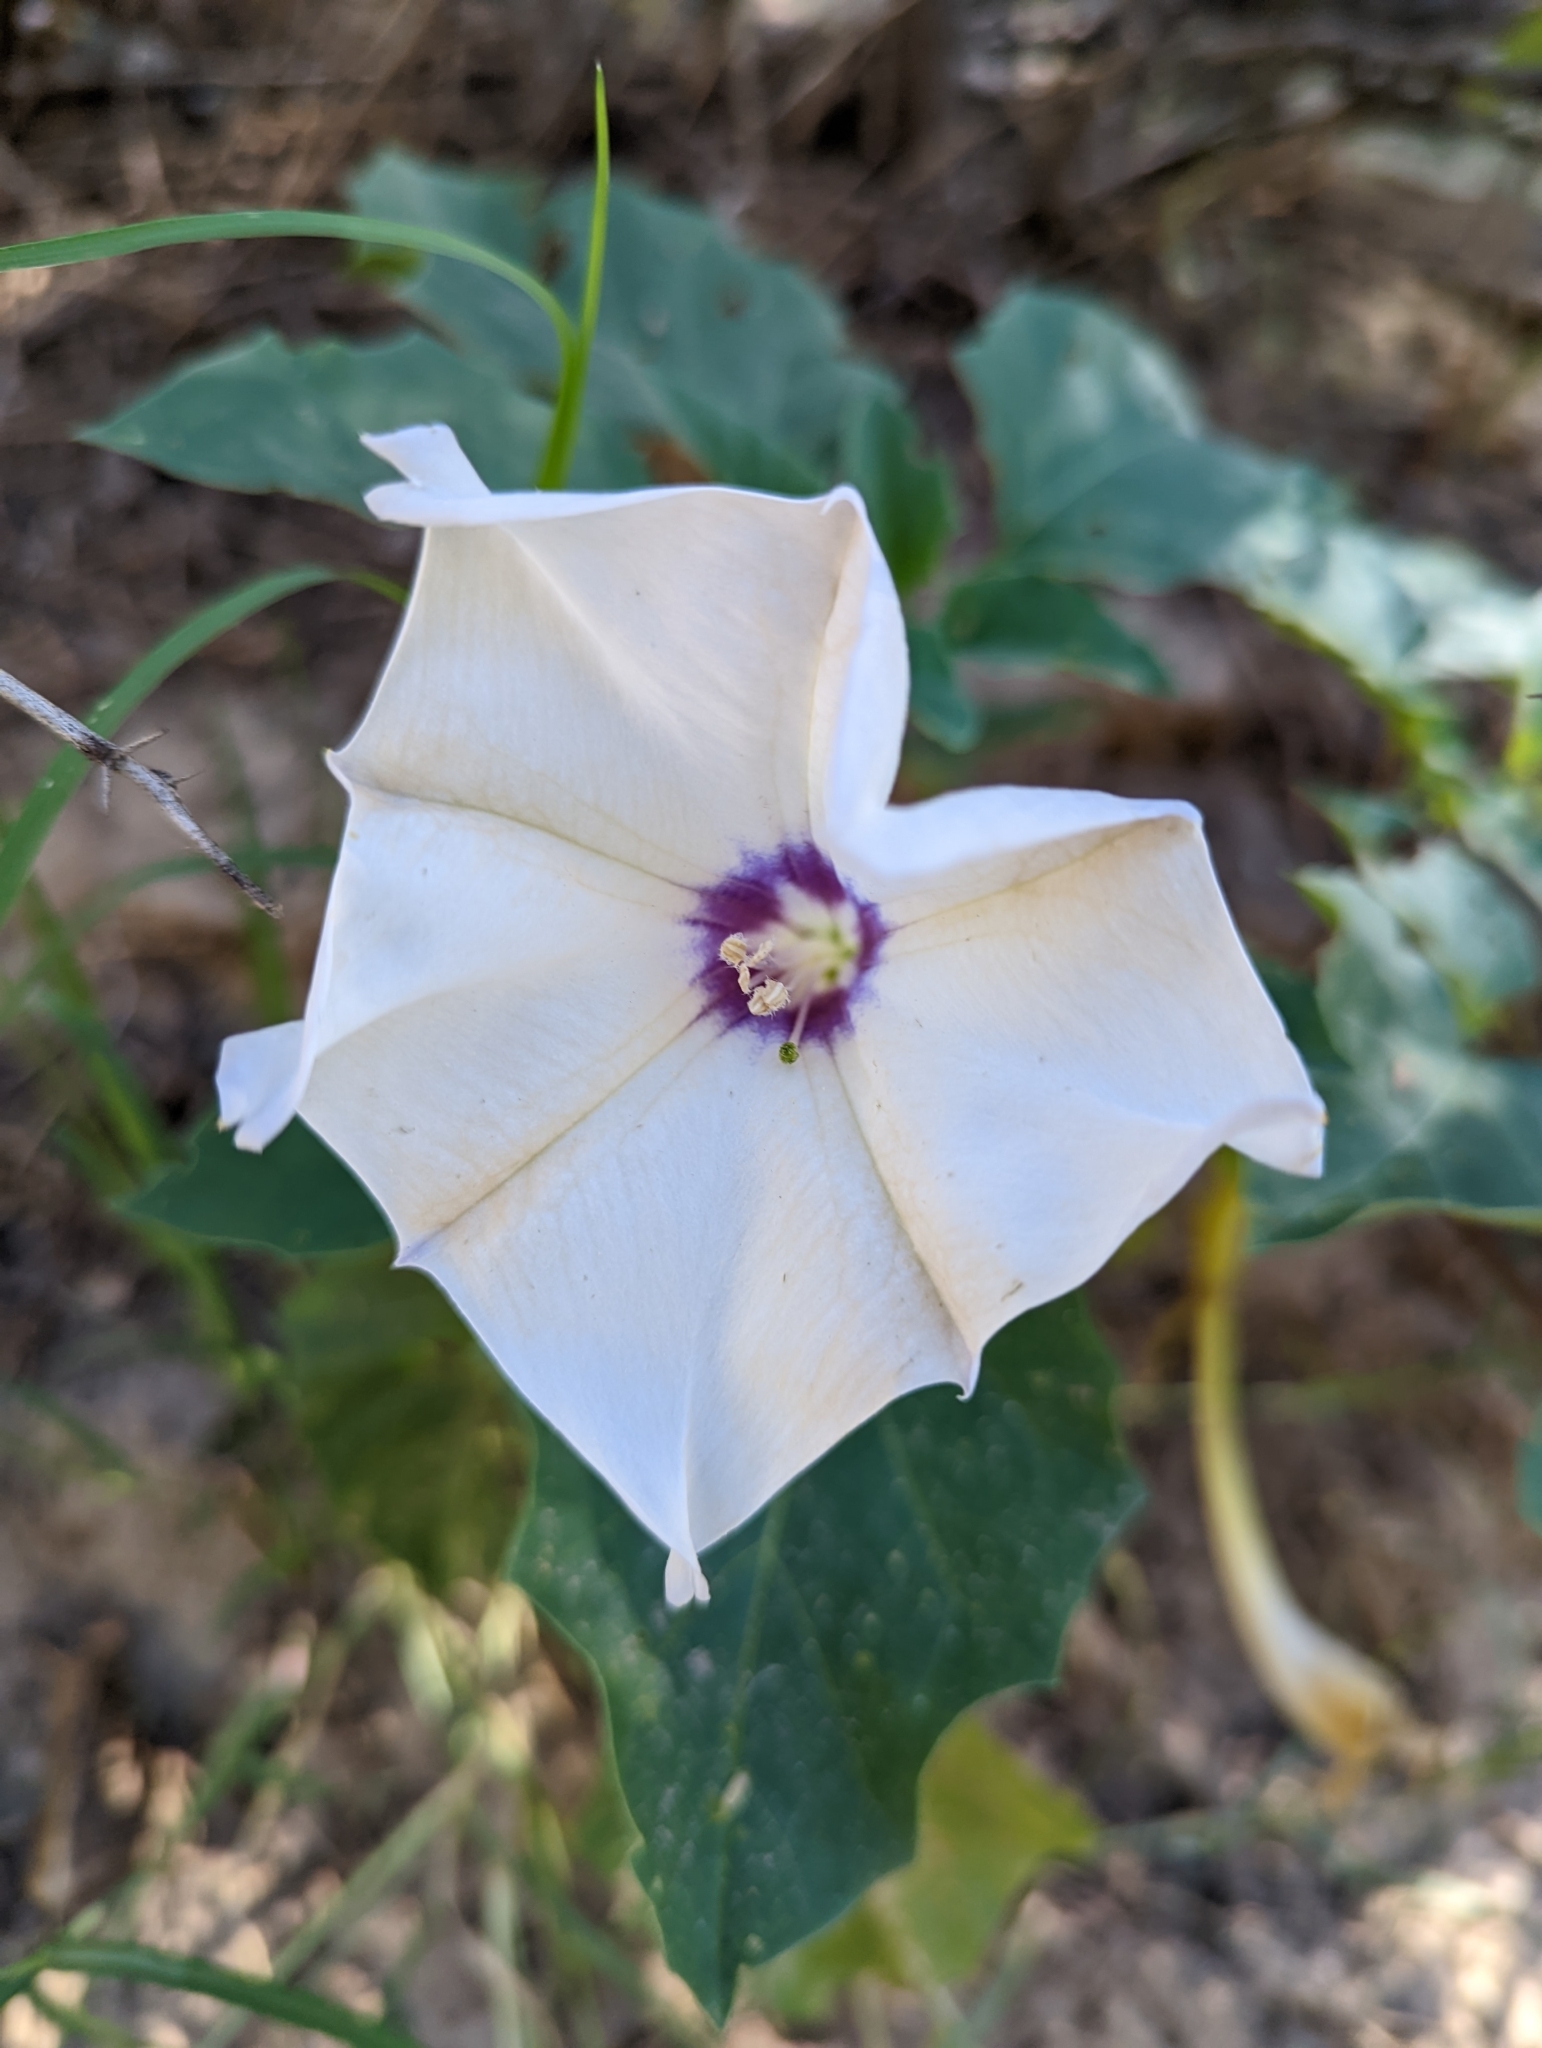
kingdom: Plantae
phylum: Tracheophyta
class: Magnoliopsida
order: Solanales
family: Solanaceae
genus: Datura
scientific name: Datura discolor
